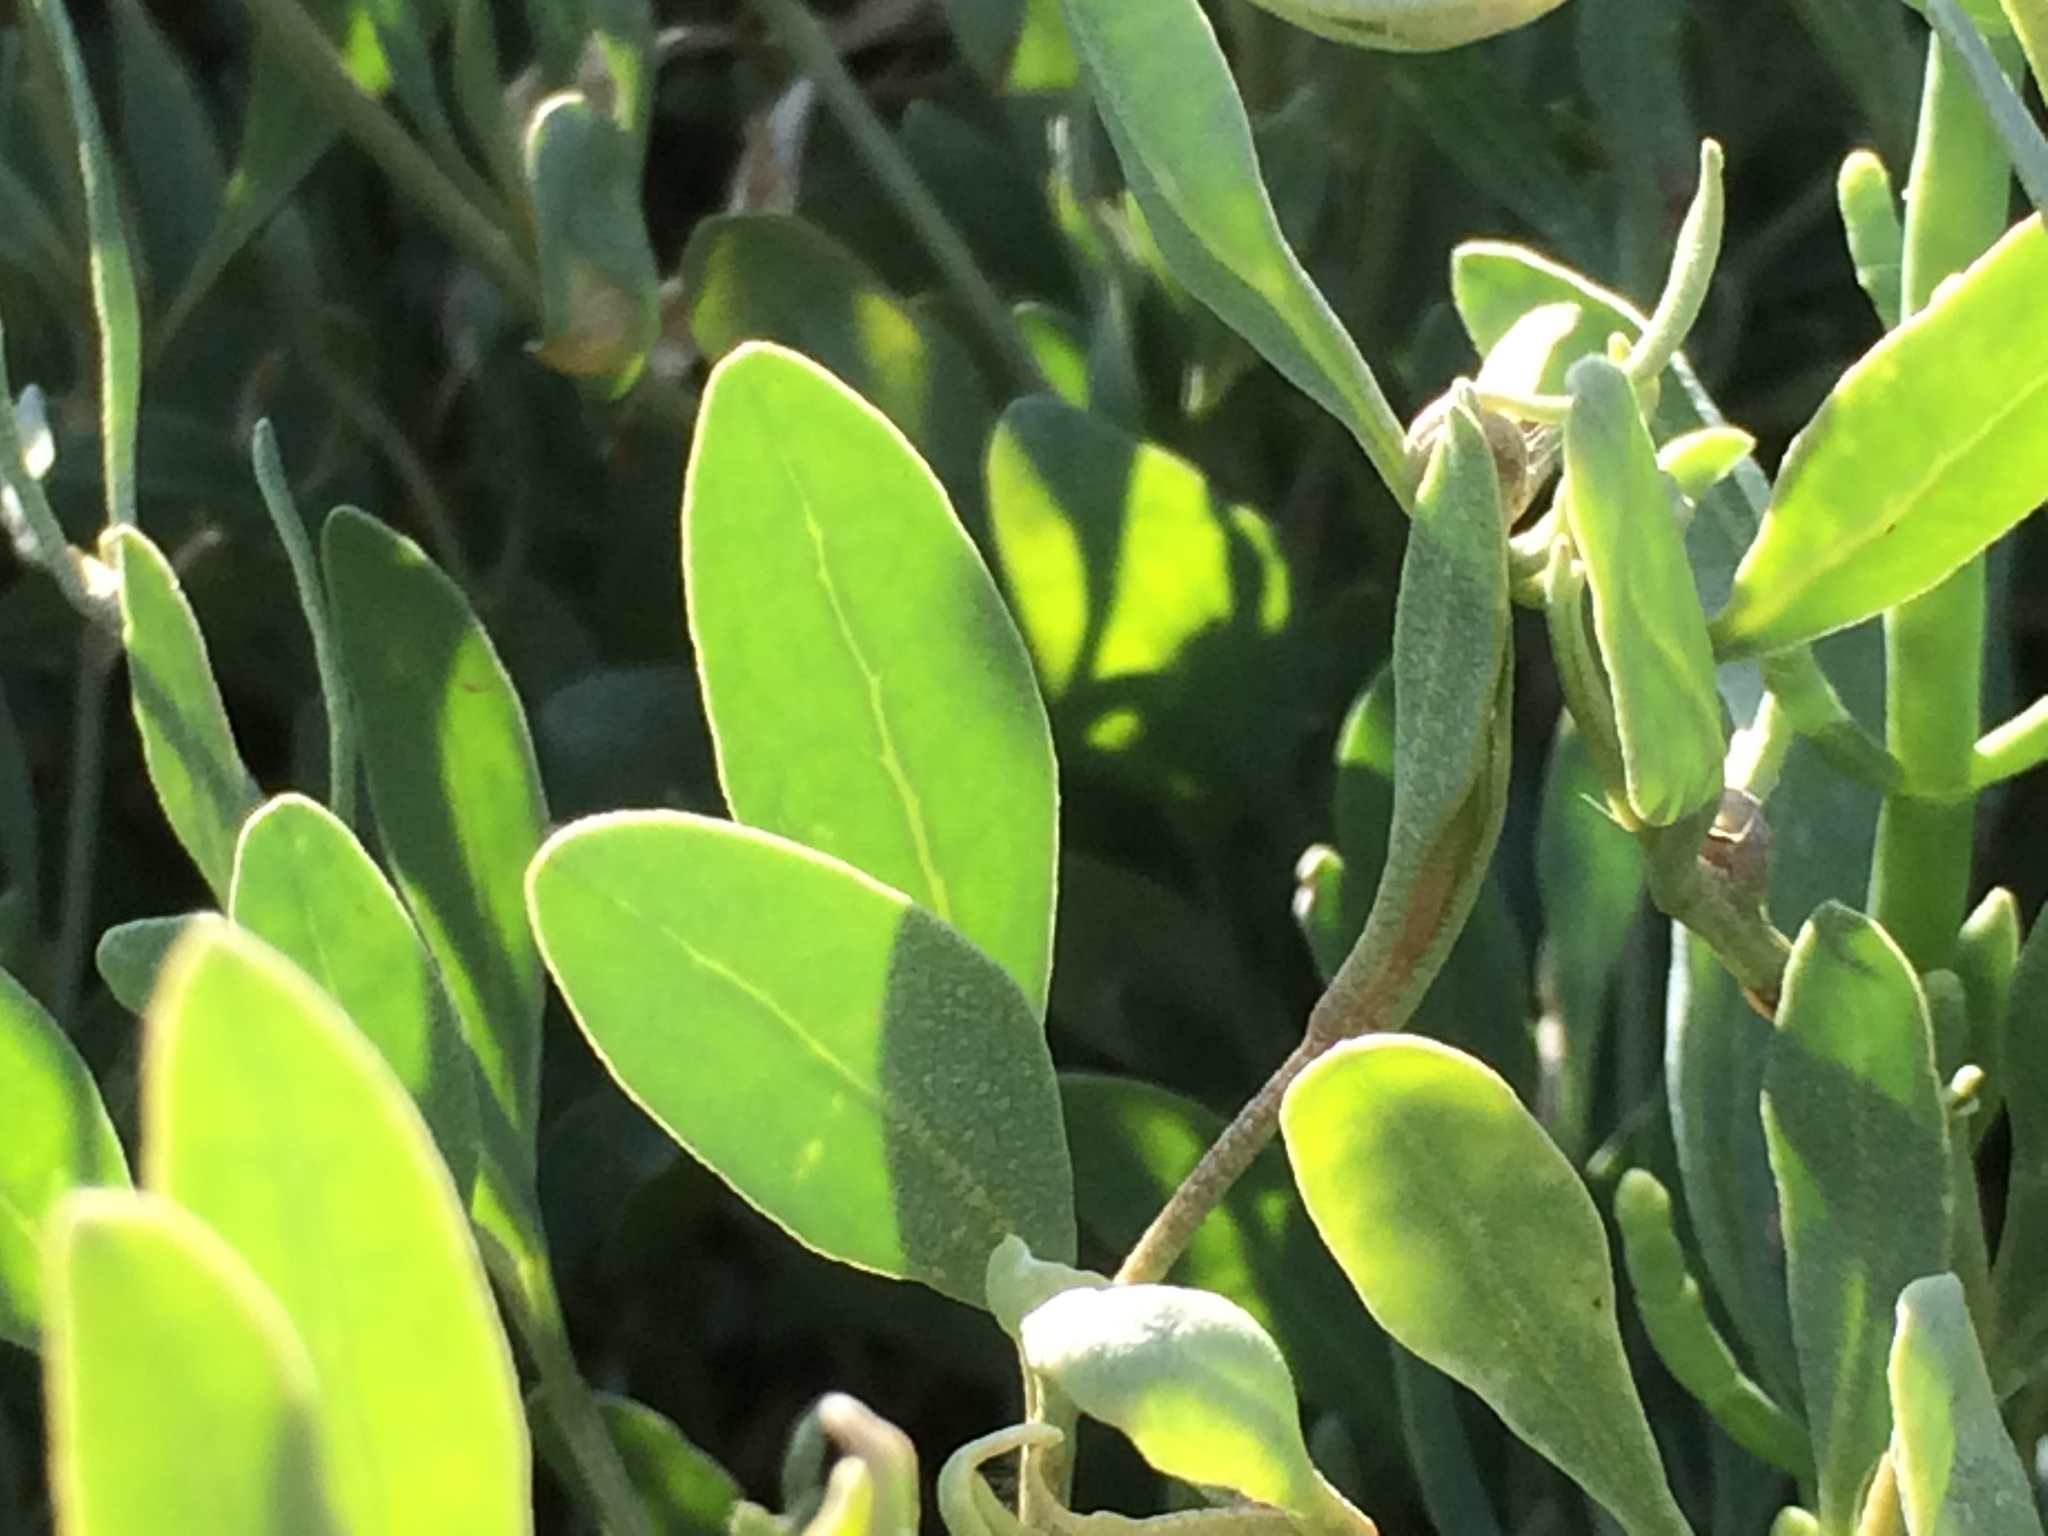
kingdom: Plantae
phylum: Tracheophyta
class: Magnoliopsida
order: Caryophyllales
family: Amaranthaceae
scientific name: Amaranthaceae
